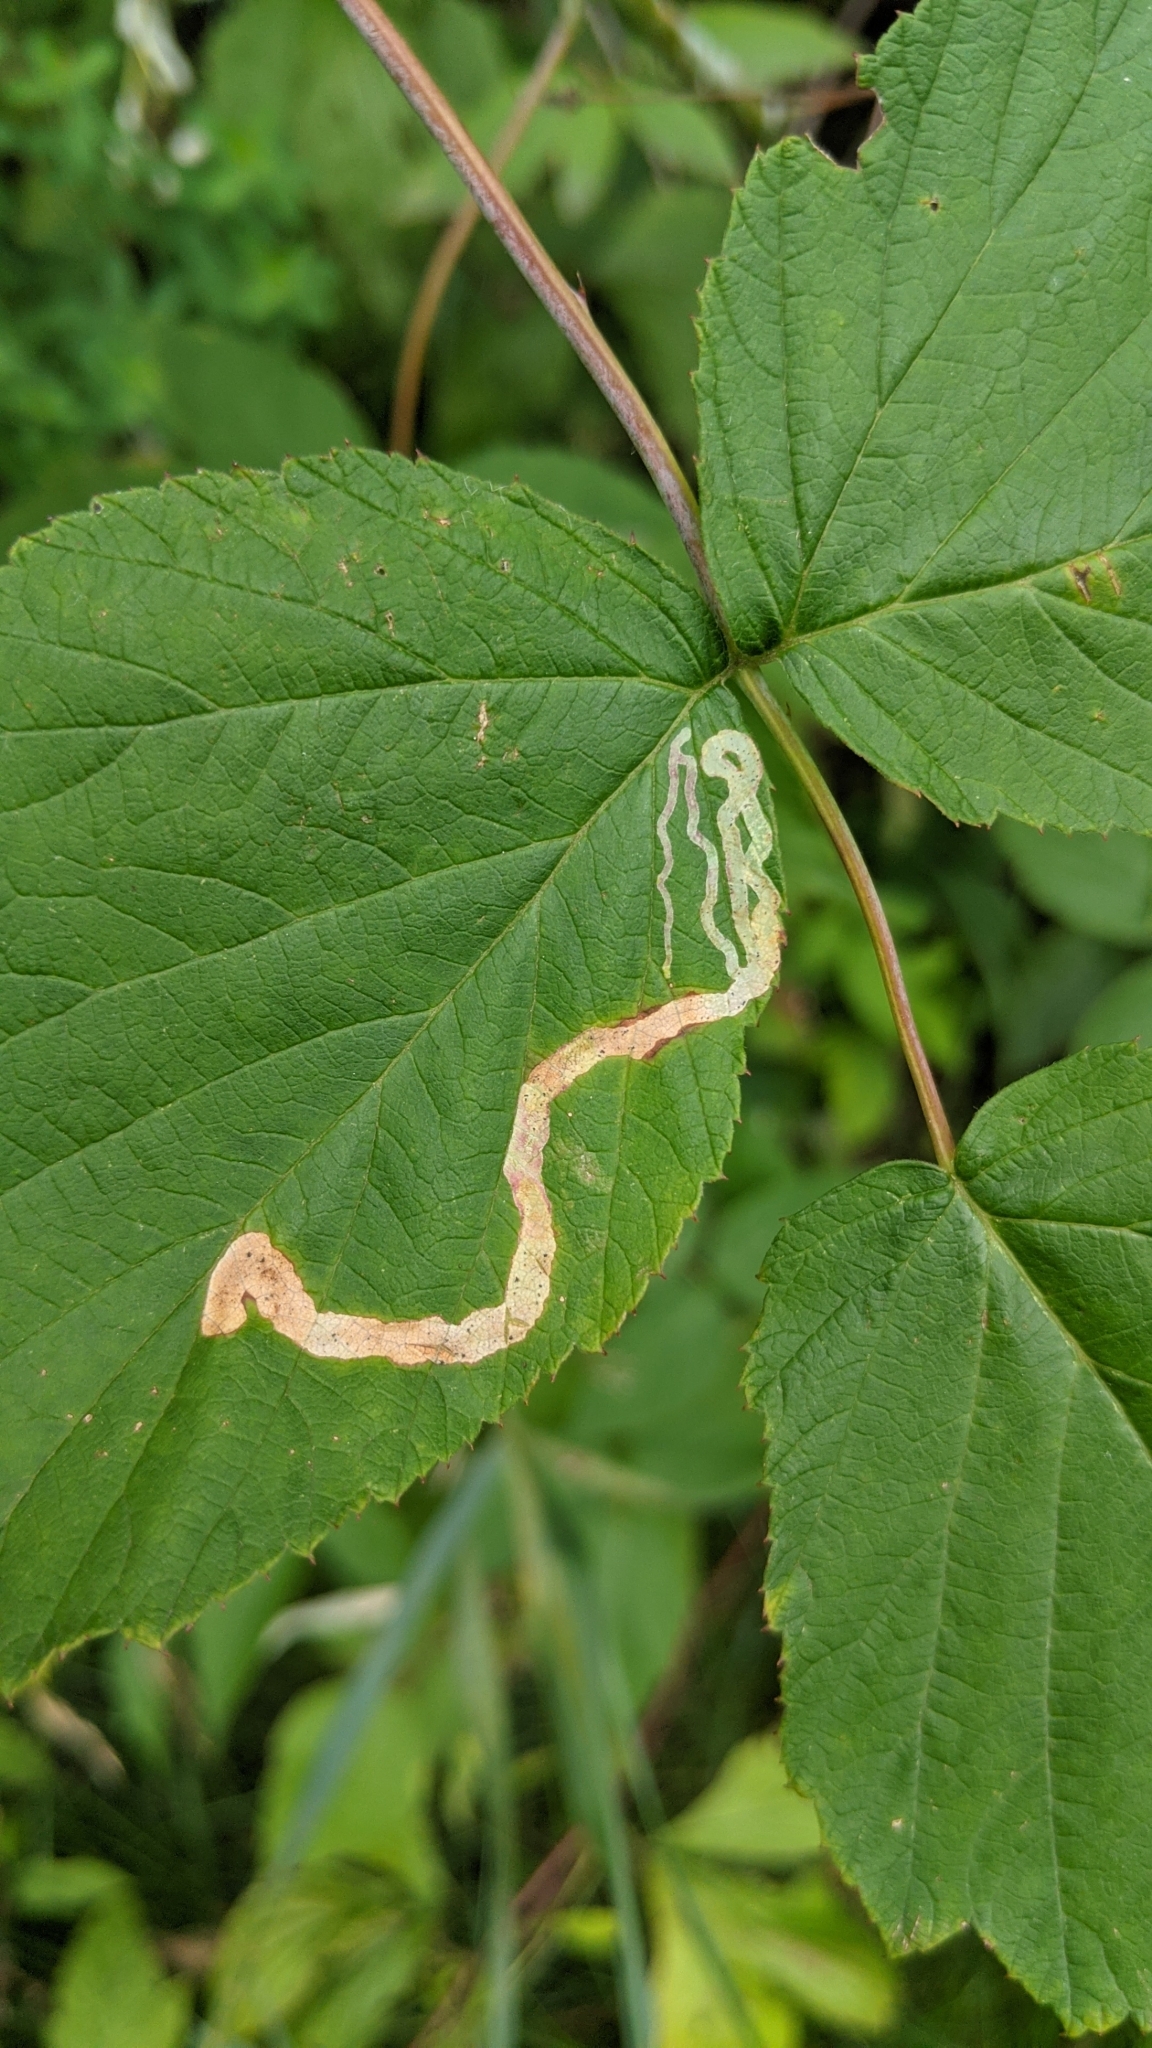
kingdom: Animalia
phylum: Arthropoda
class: Insecta
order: Diptera
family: Agromyzidae
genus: Agromyza
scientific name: Agromyza vockerothi
